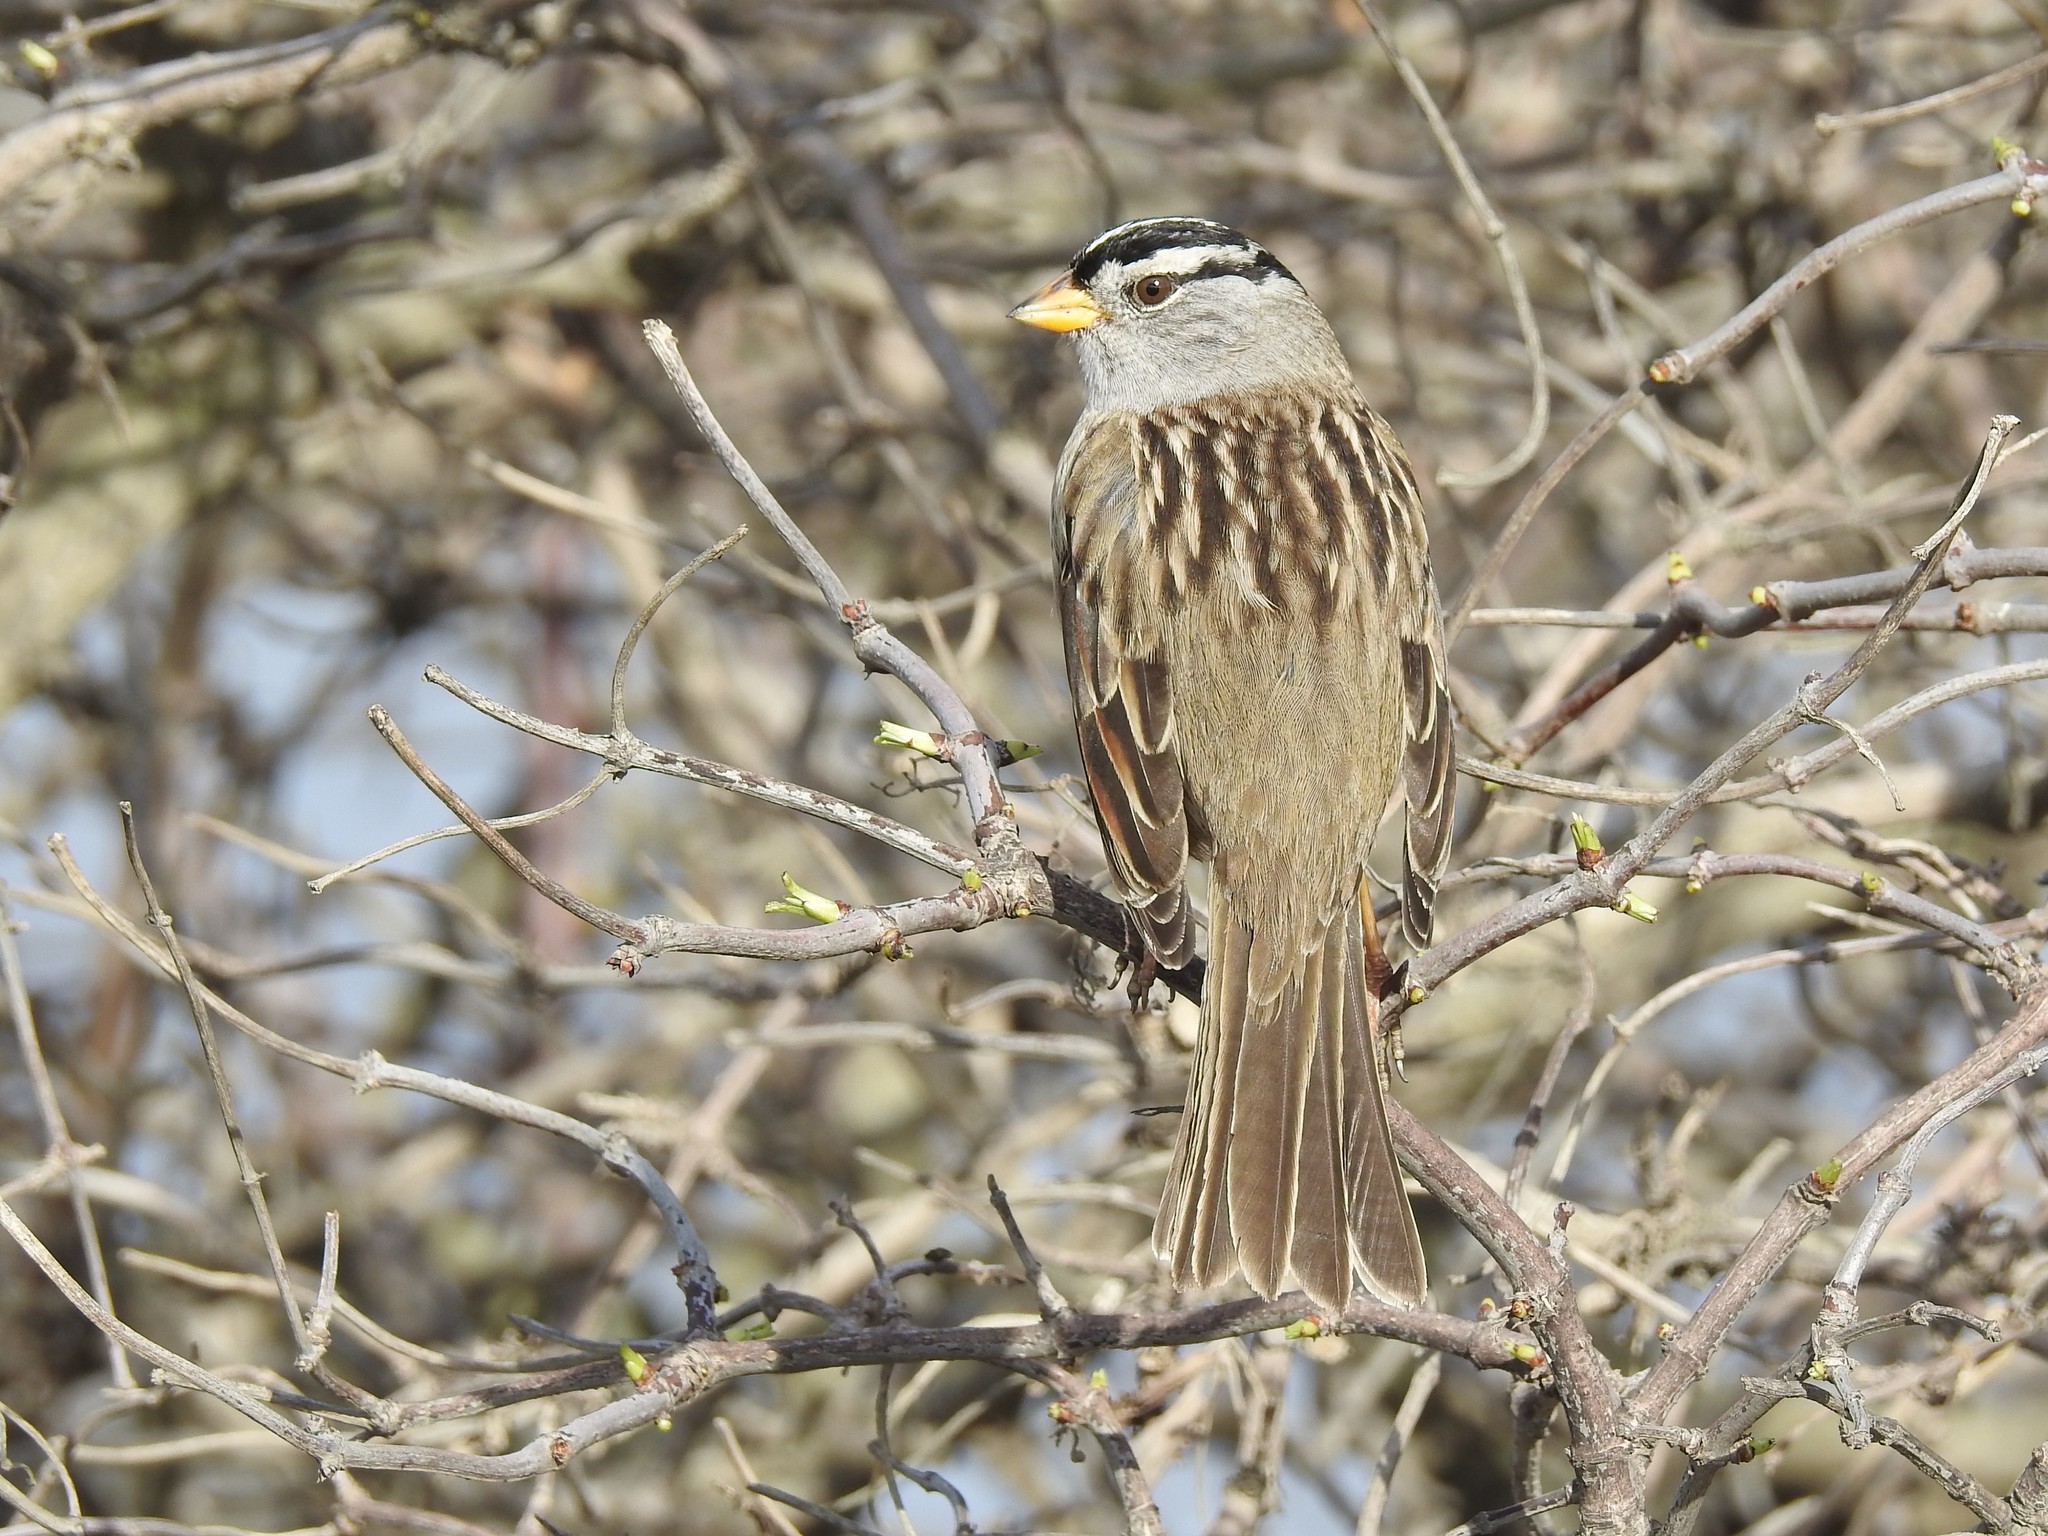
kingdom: Animalia
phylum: Chordata
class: Aves
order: Passeriformes
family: Passerellidae
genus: Zonotrichia
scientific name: Zonotrichia leucophrys
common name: White-crowned sparrow
